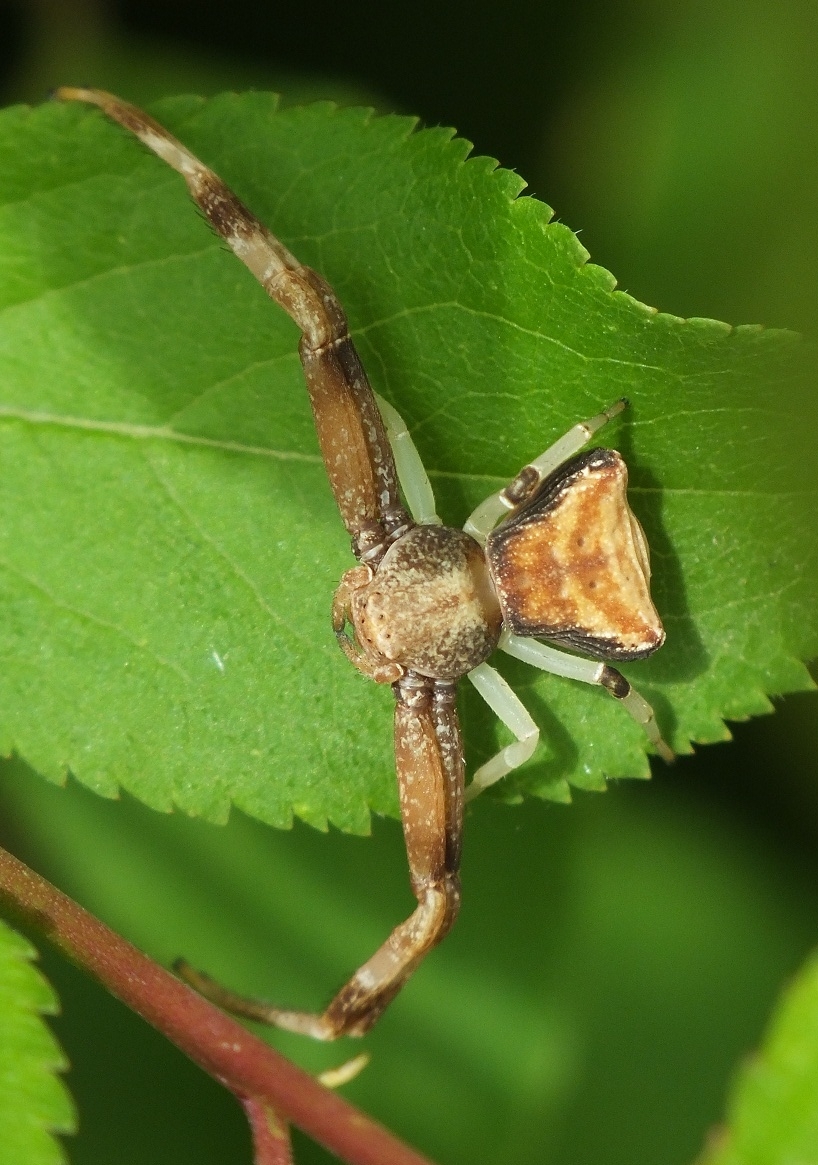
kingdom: Animalia
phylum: Arthropoda
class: Arachnida
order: Araneae
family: Thomisidae
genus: Pistius
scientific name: Pistius truncatus
